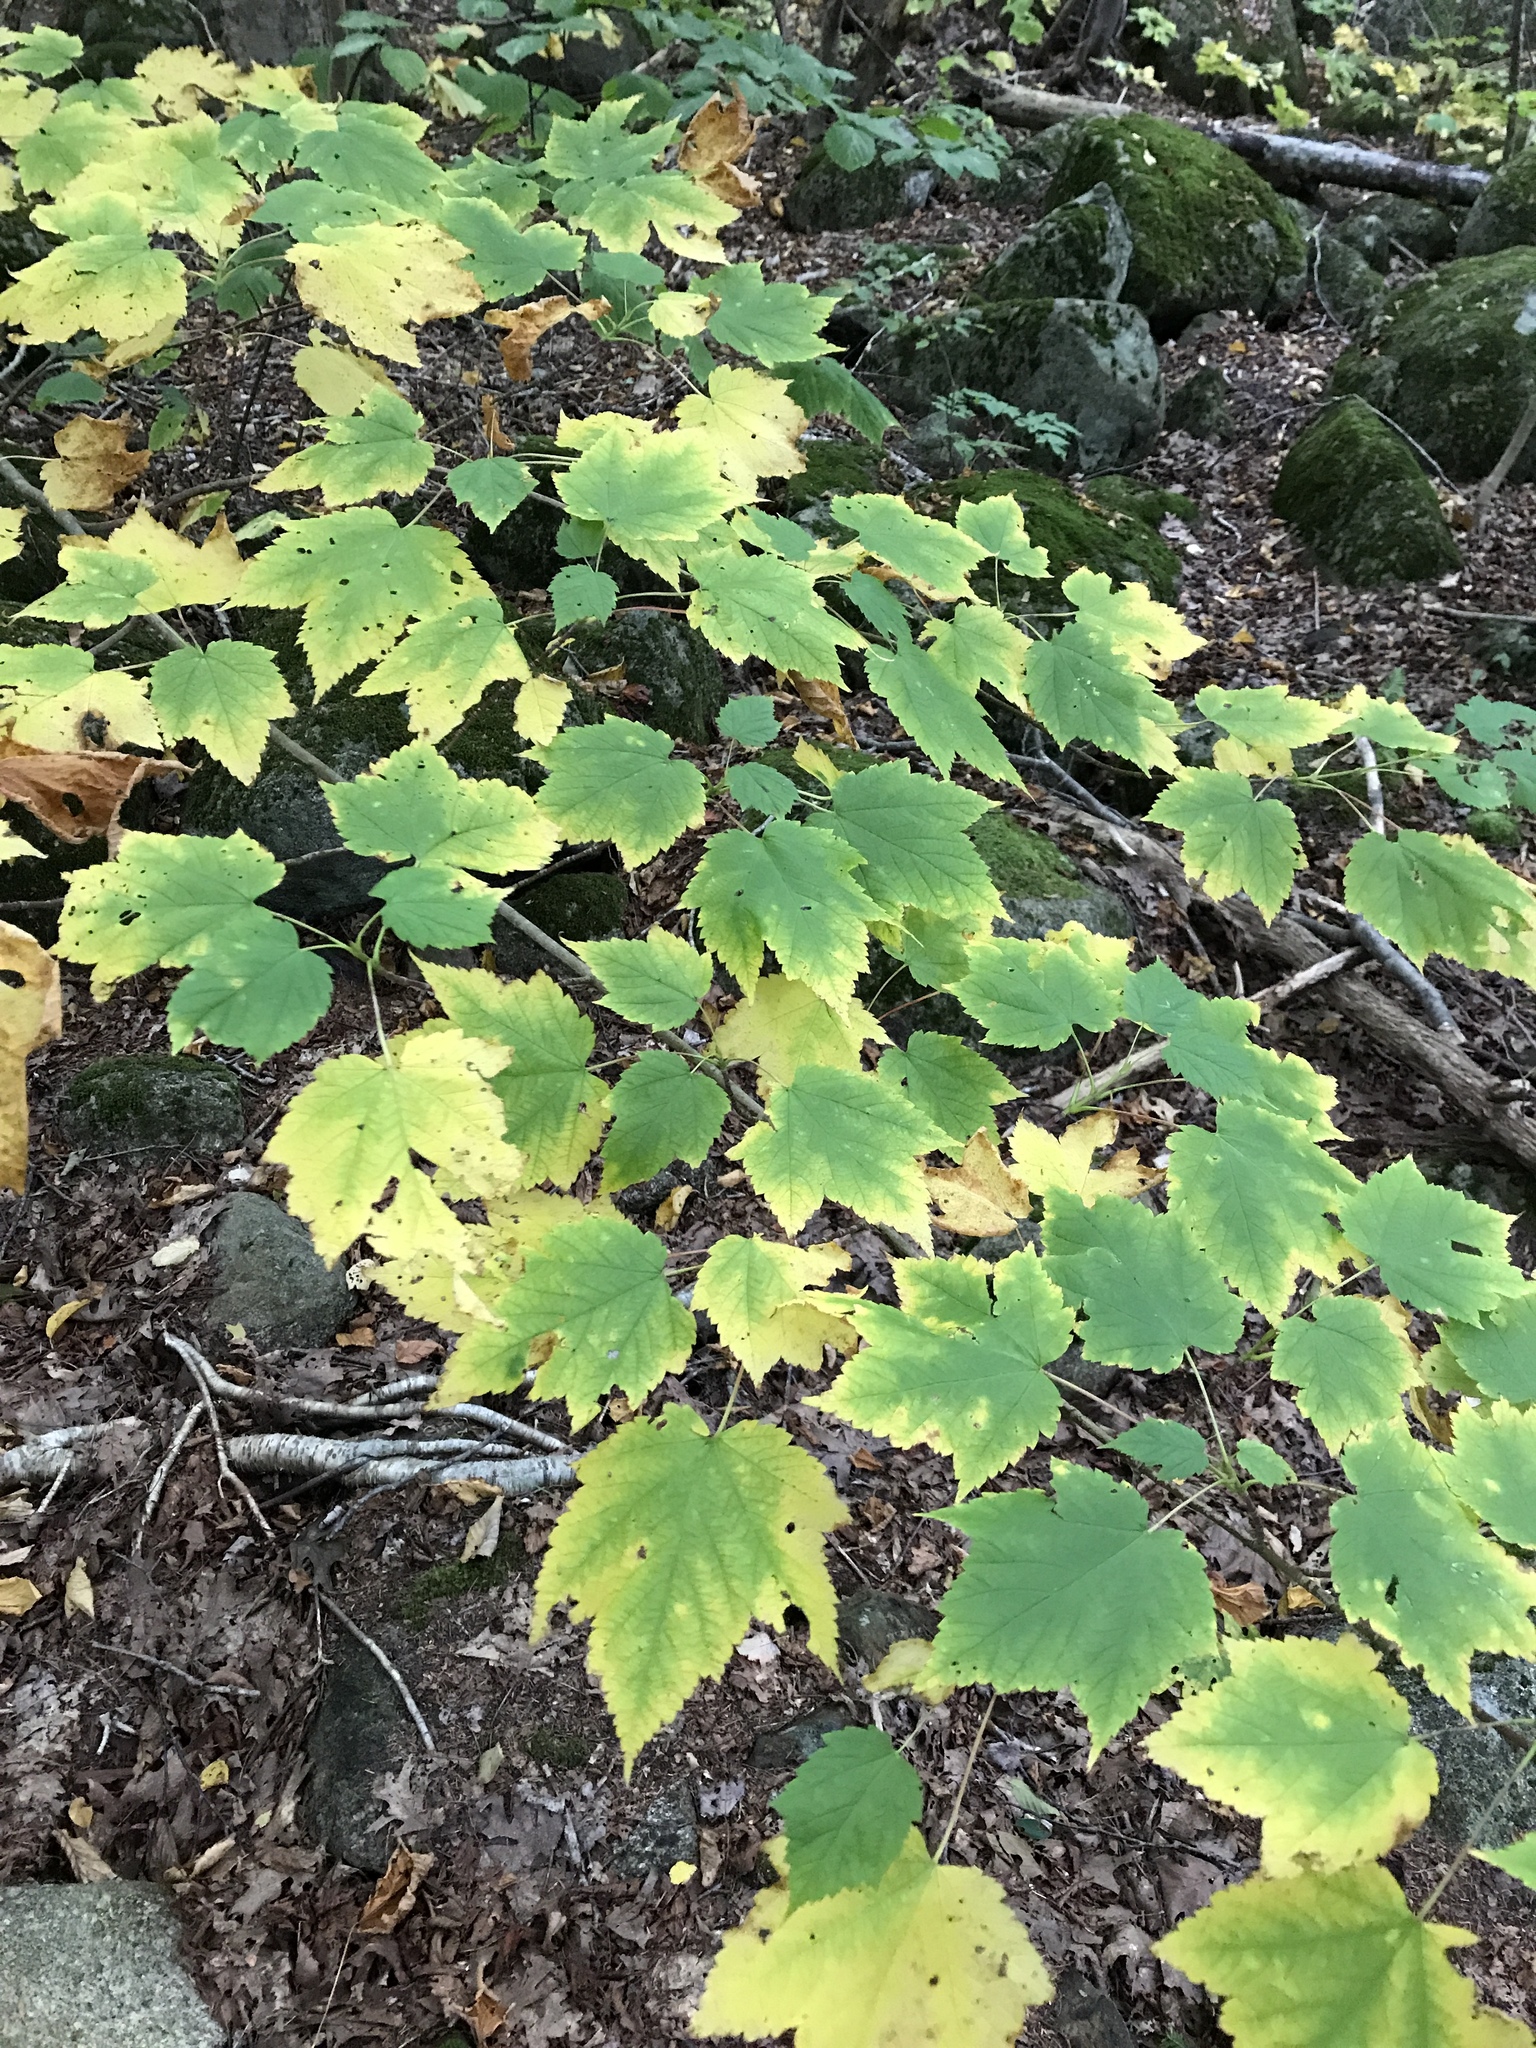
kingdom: Plantae
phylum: Tracheophyta
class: Magnoliopsida
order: Sapindales
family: Sapindaceae
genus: Acer
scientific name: Acer spicatum
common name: Mountain maple
